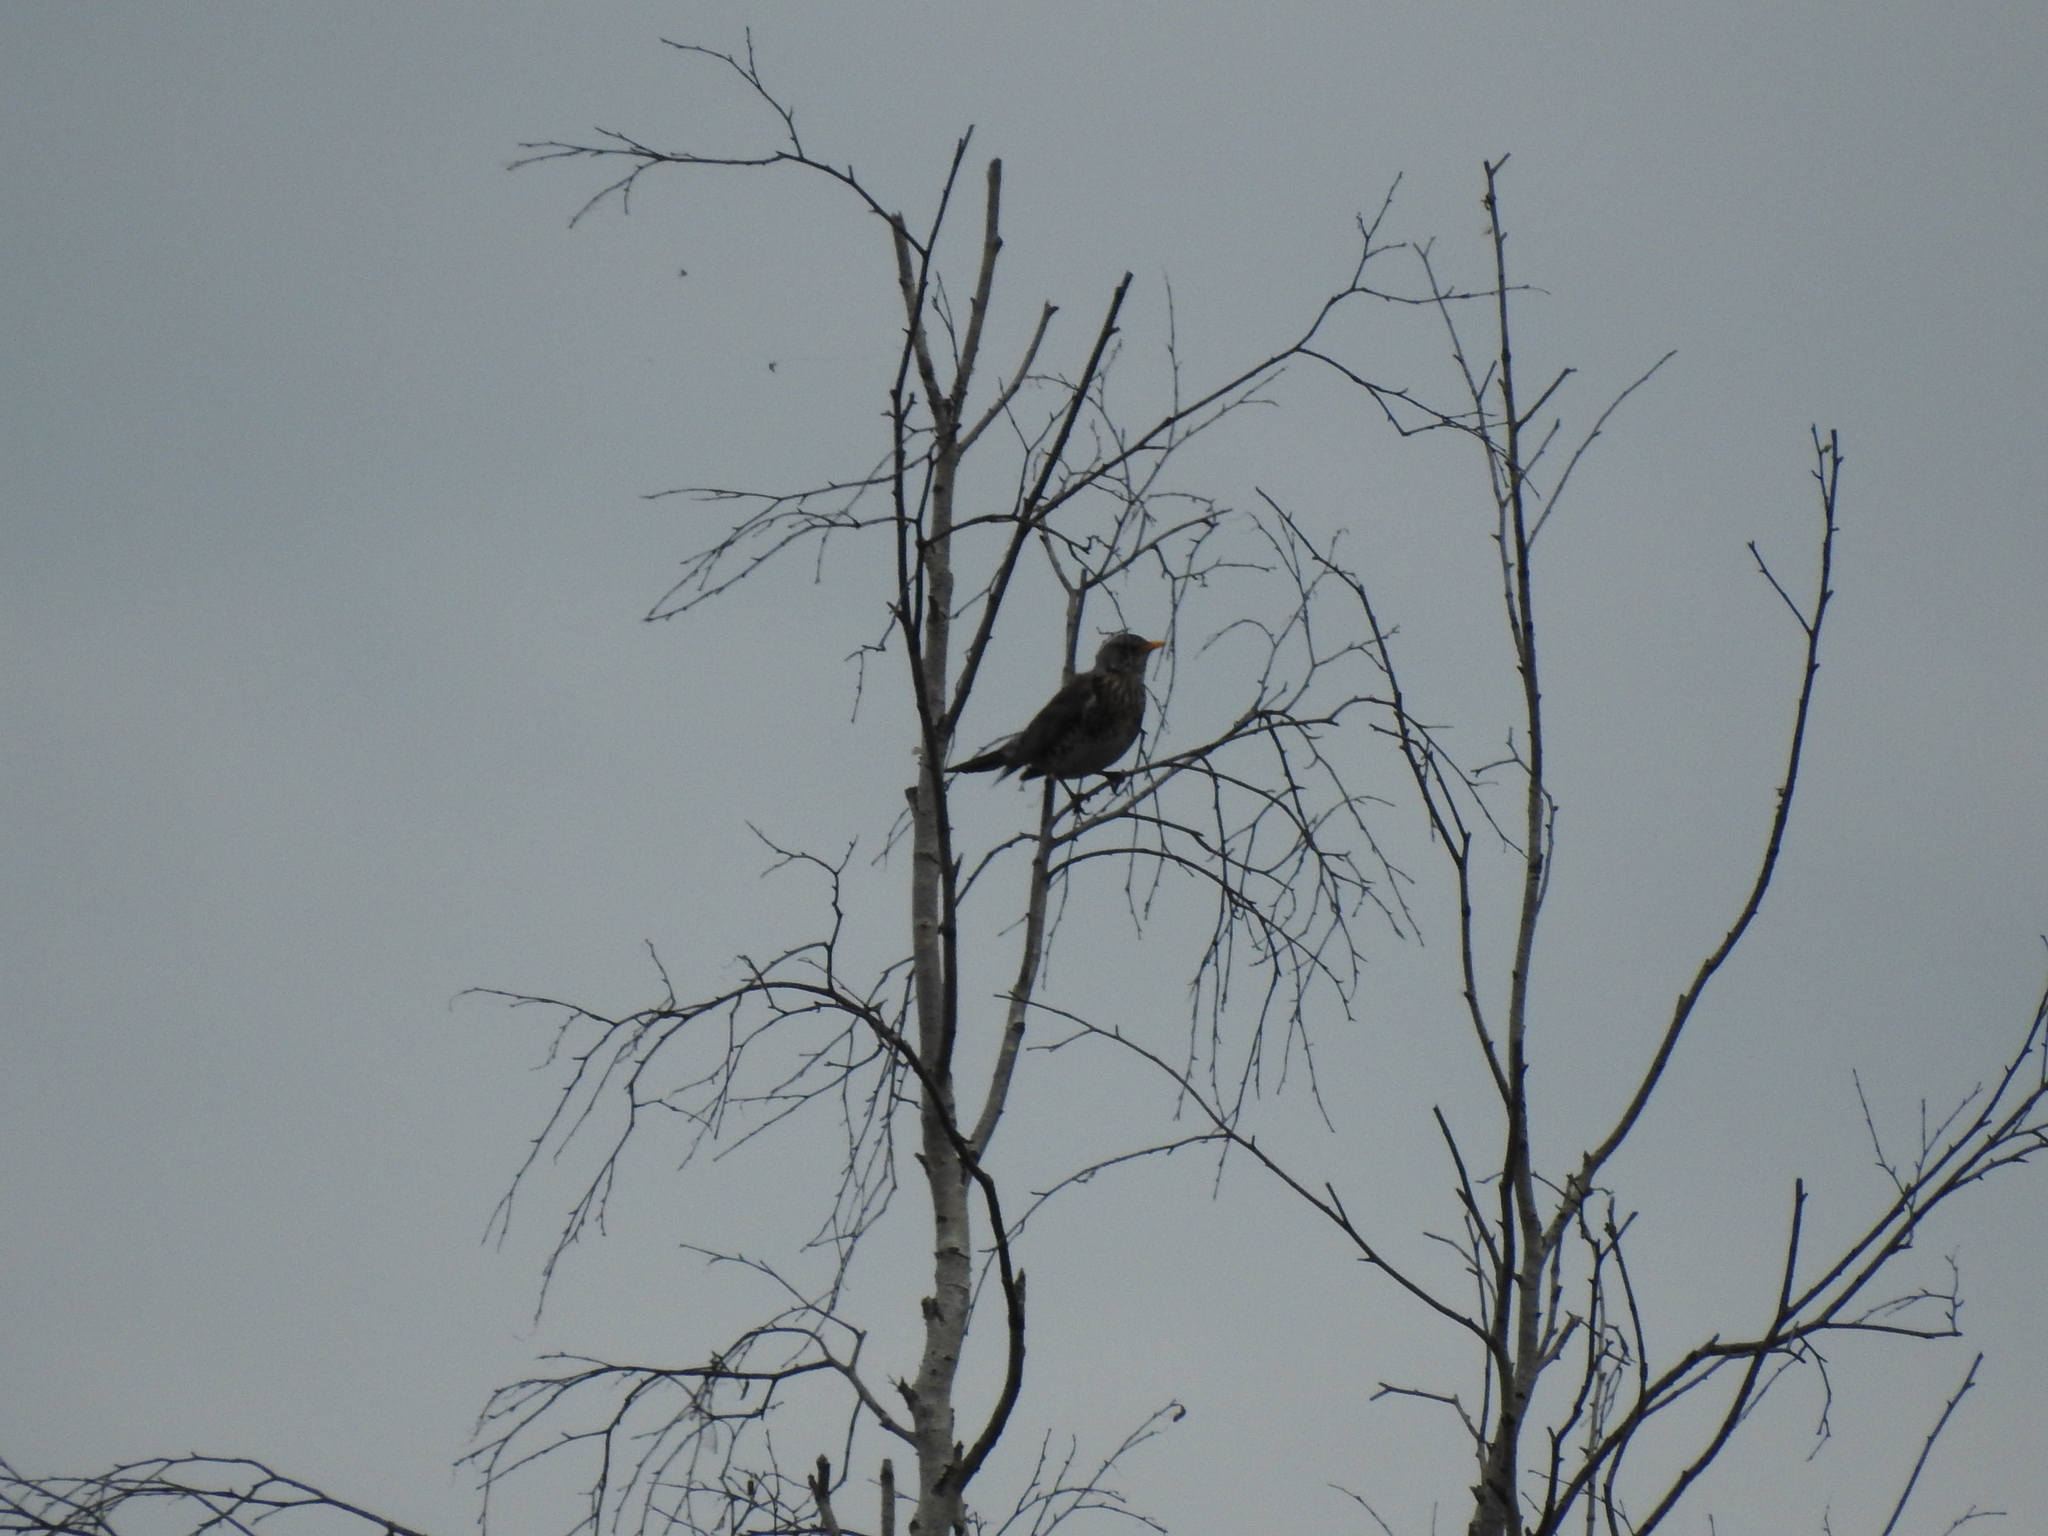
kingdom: Animalia
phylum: Chordata
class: Aves
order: Passeriformes
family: Turdidae
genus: Turdus
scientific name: Turdus pilaris
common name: Fieldfare
